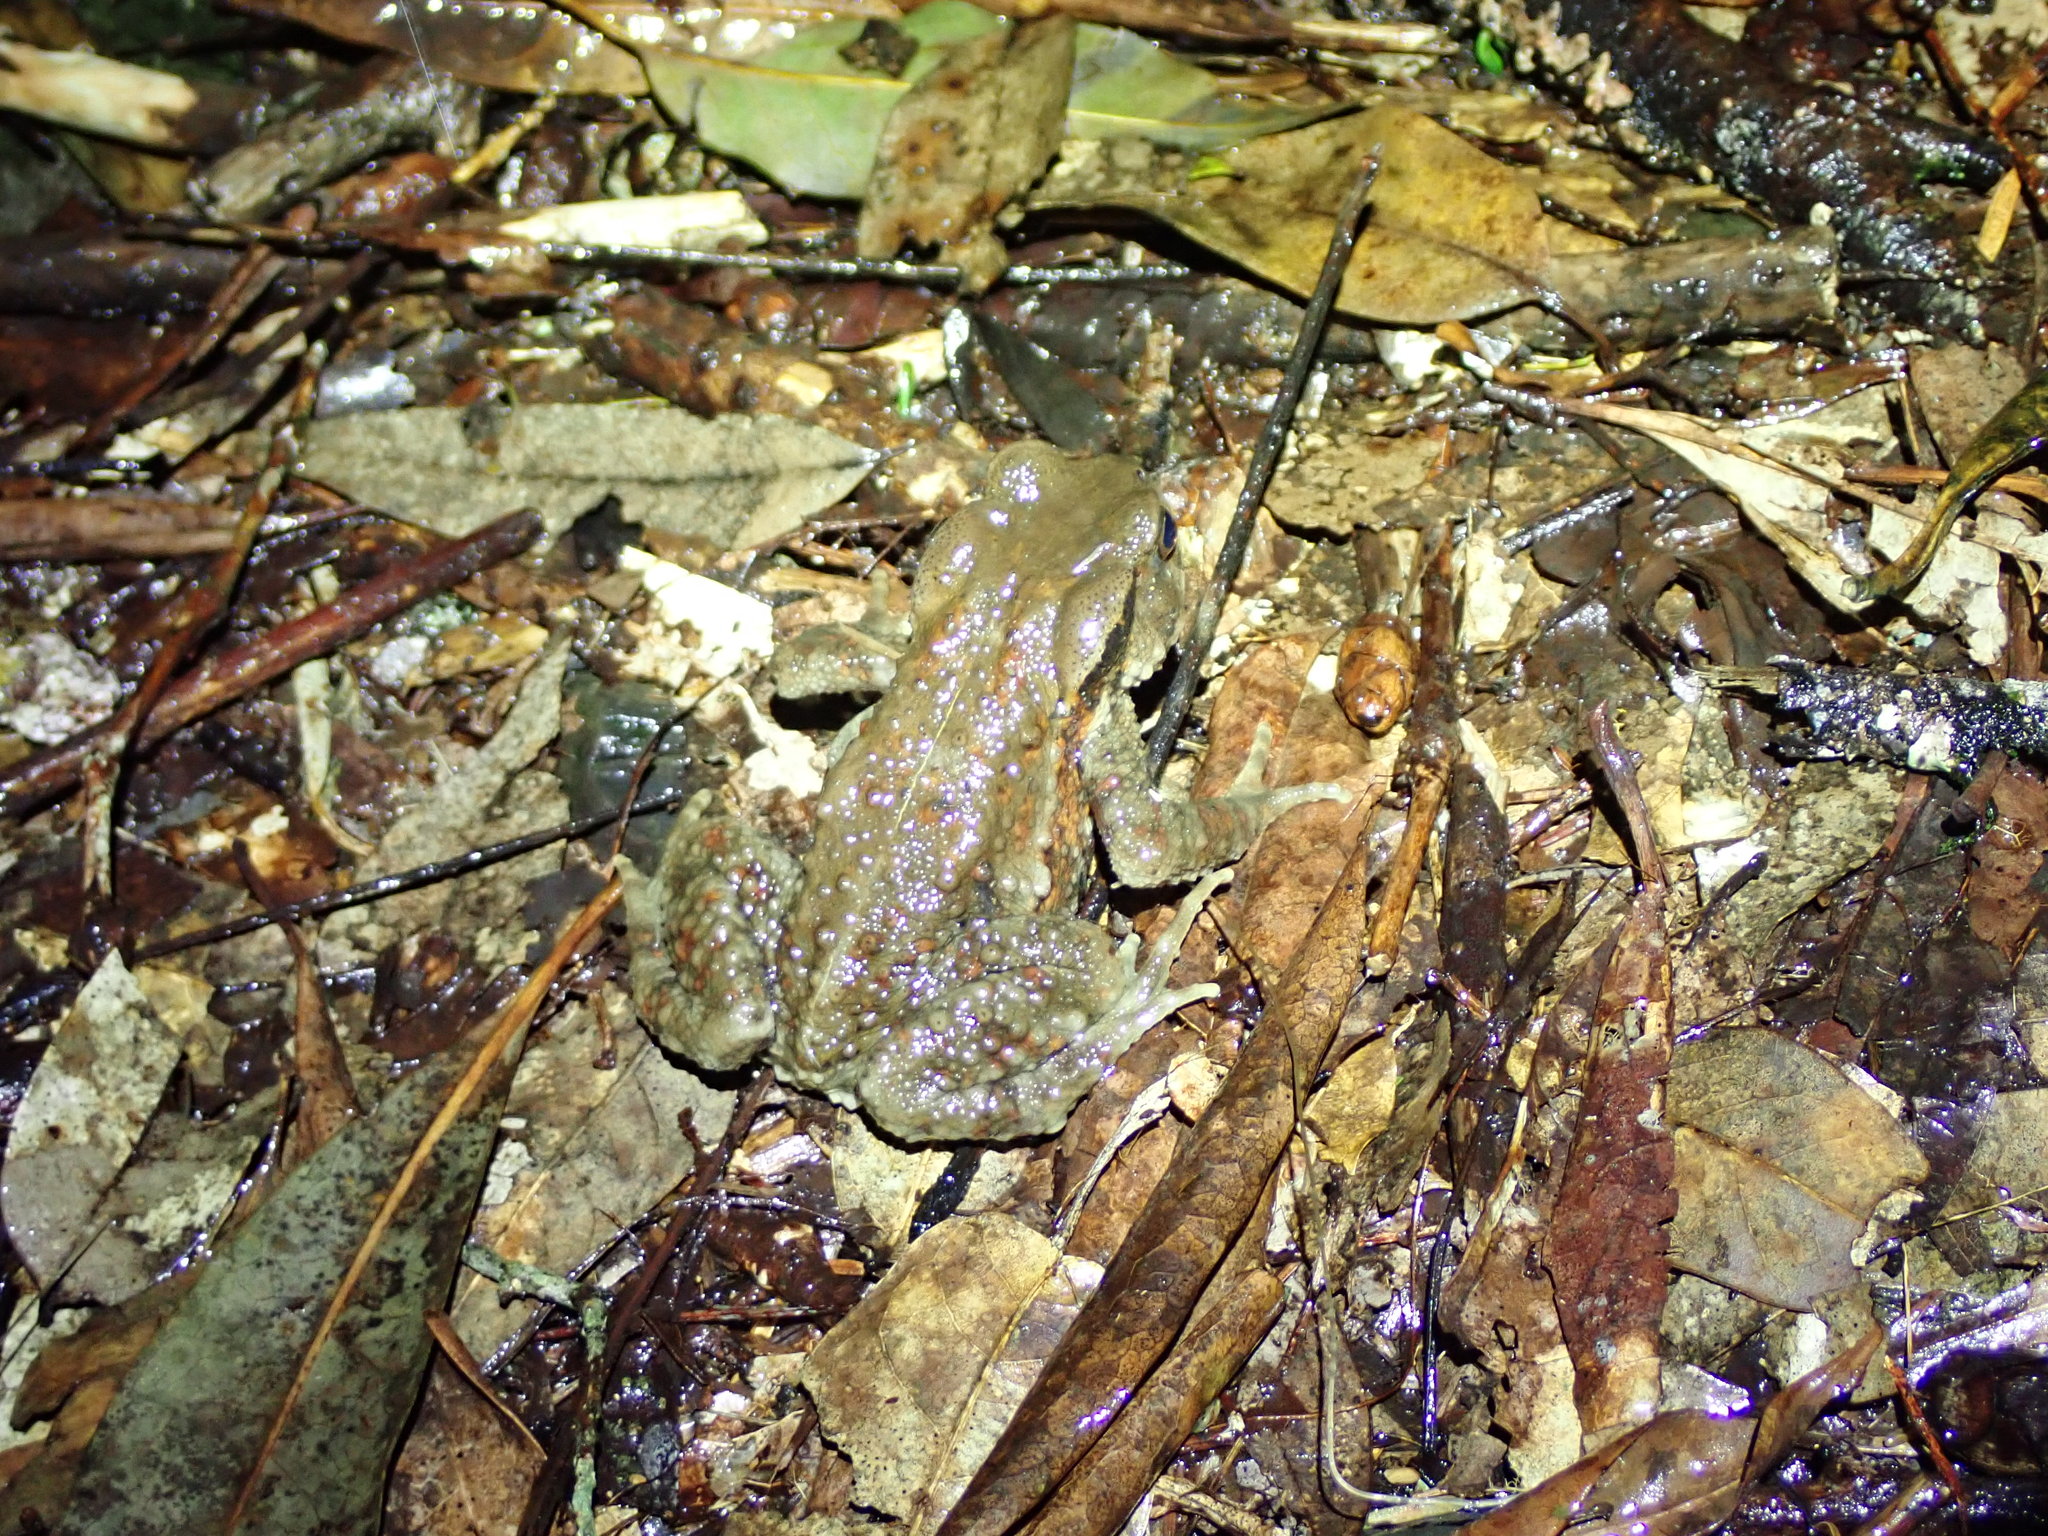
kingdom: Animalia
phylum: Chordata
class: Amphibia
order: Anura
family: Bufonidae
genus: Bufo
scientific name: Bufo bankorensis
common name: Bankor toad
